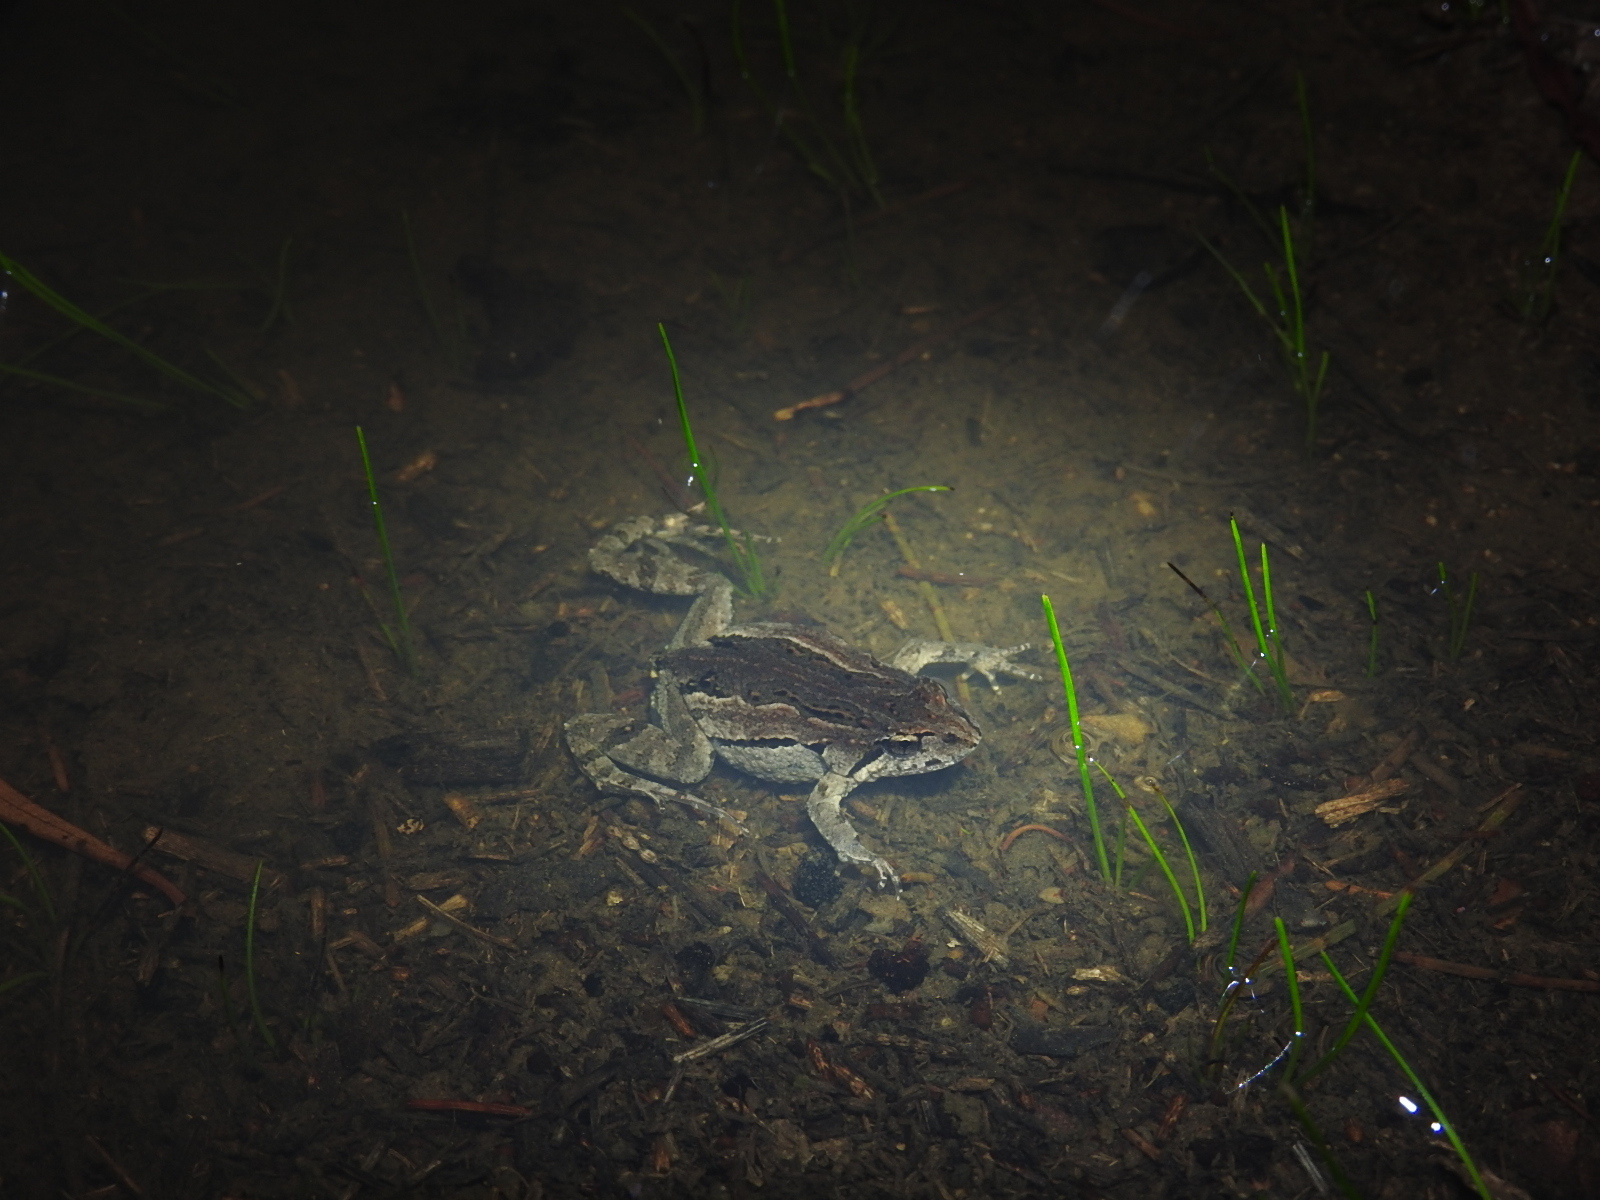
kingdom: Animalia
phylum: Chordata
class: Amphibia
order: Anura
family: Myobatrachidae
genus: Crinia
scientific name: Crinia signifera
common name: Brown froglet
